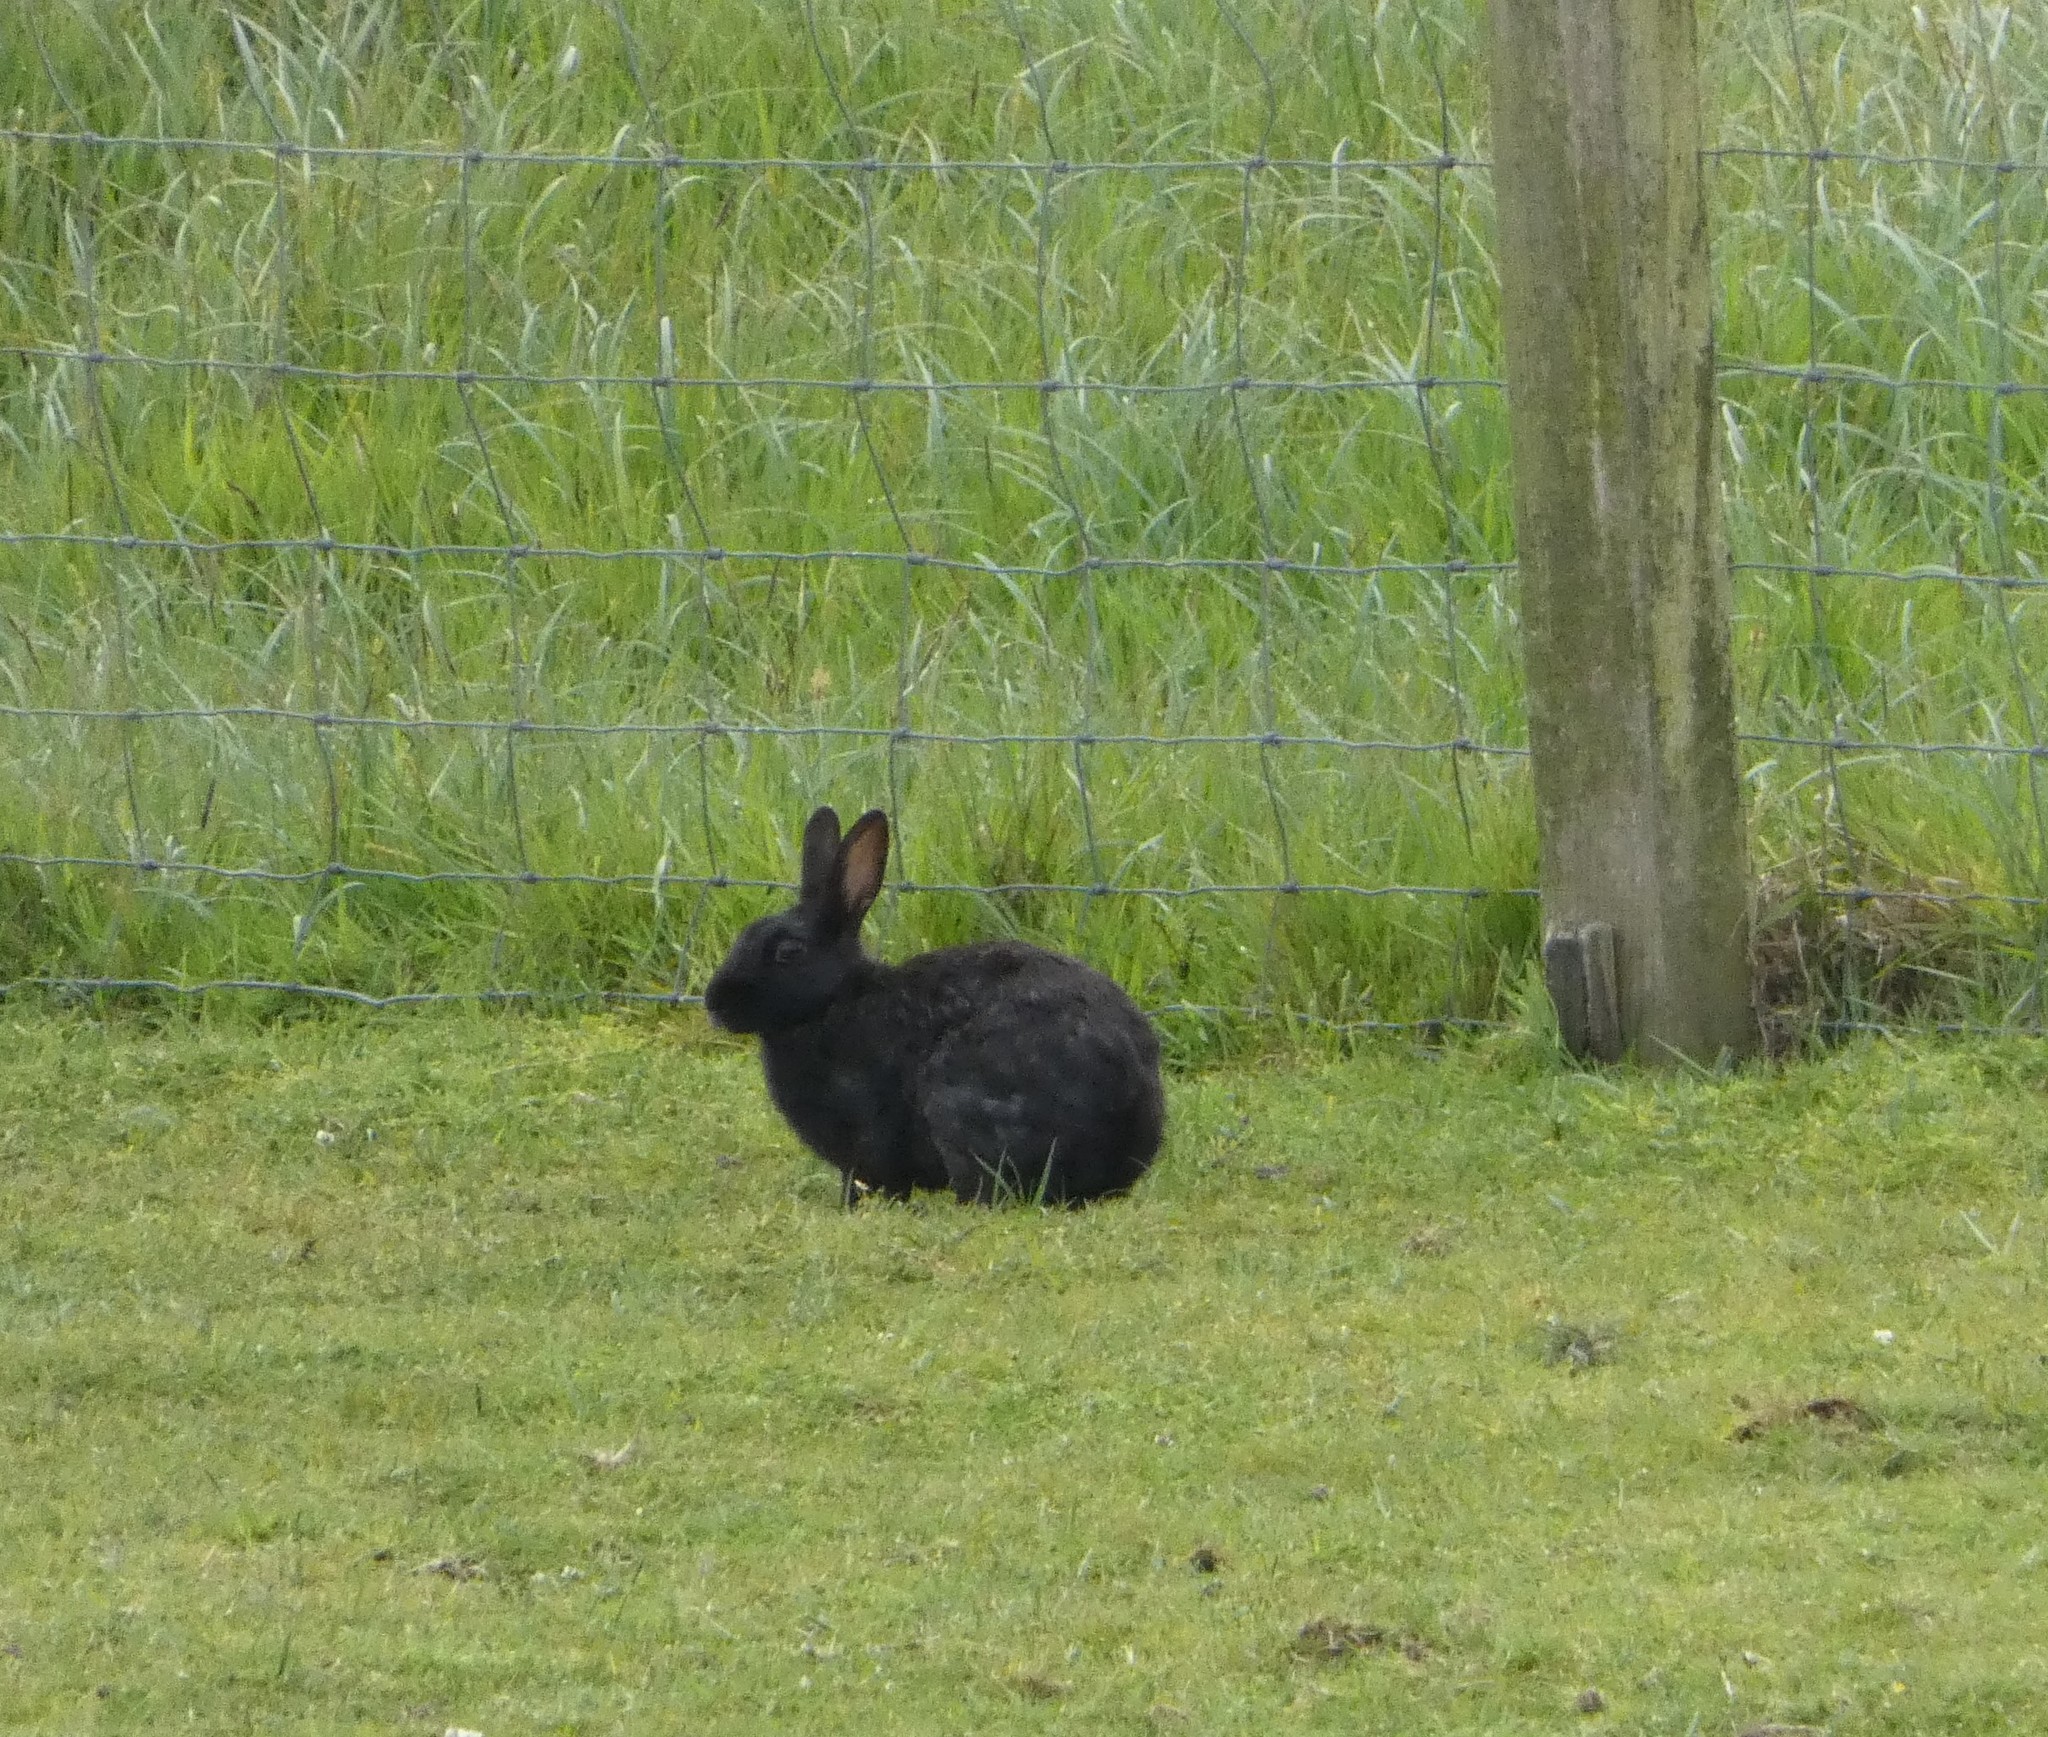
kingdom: Animalia
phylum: Chordata
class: Mammalia
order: Lagomorpha
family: Leporidae
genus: Oryctolagus
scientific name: Oryctolagus cuniculus
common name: European rabbit
